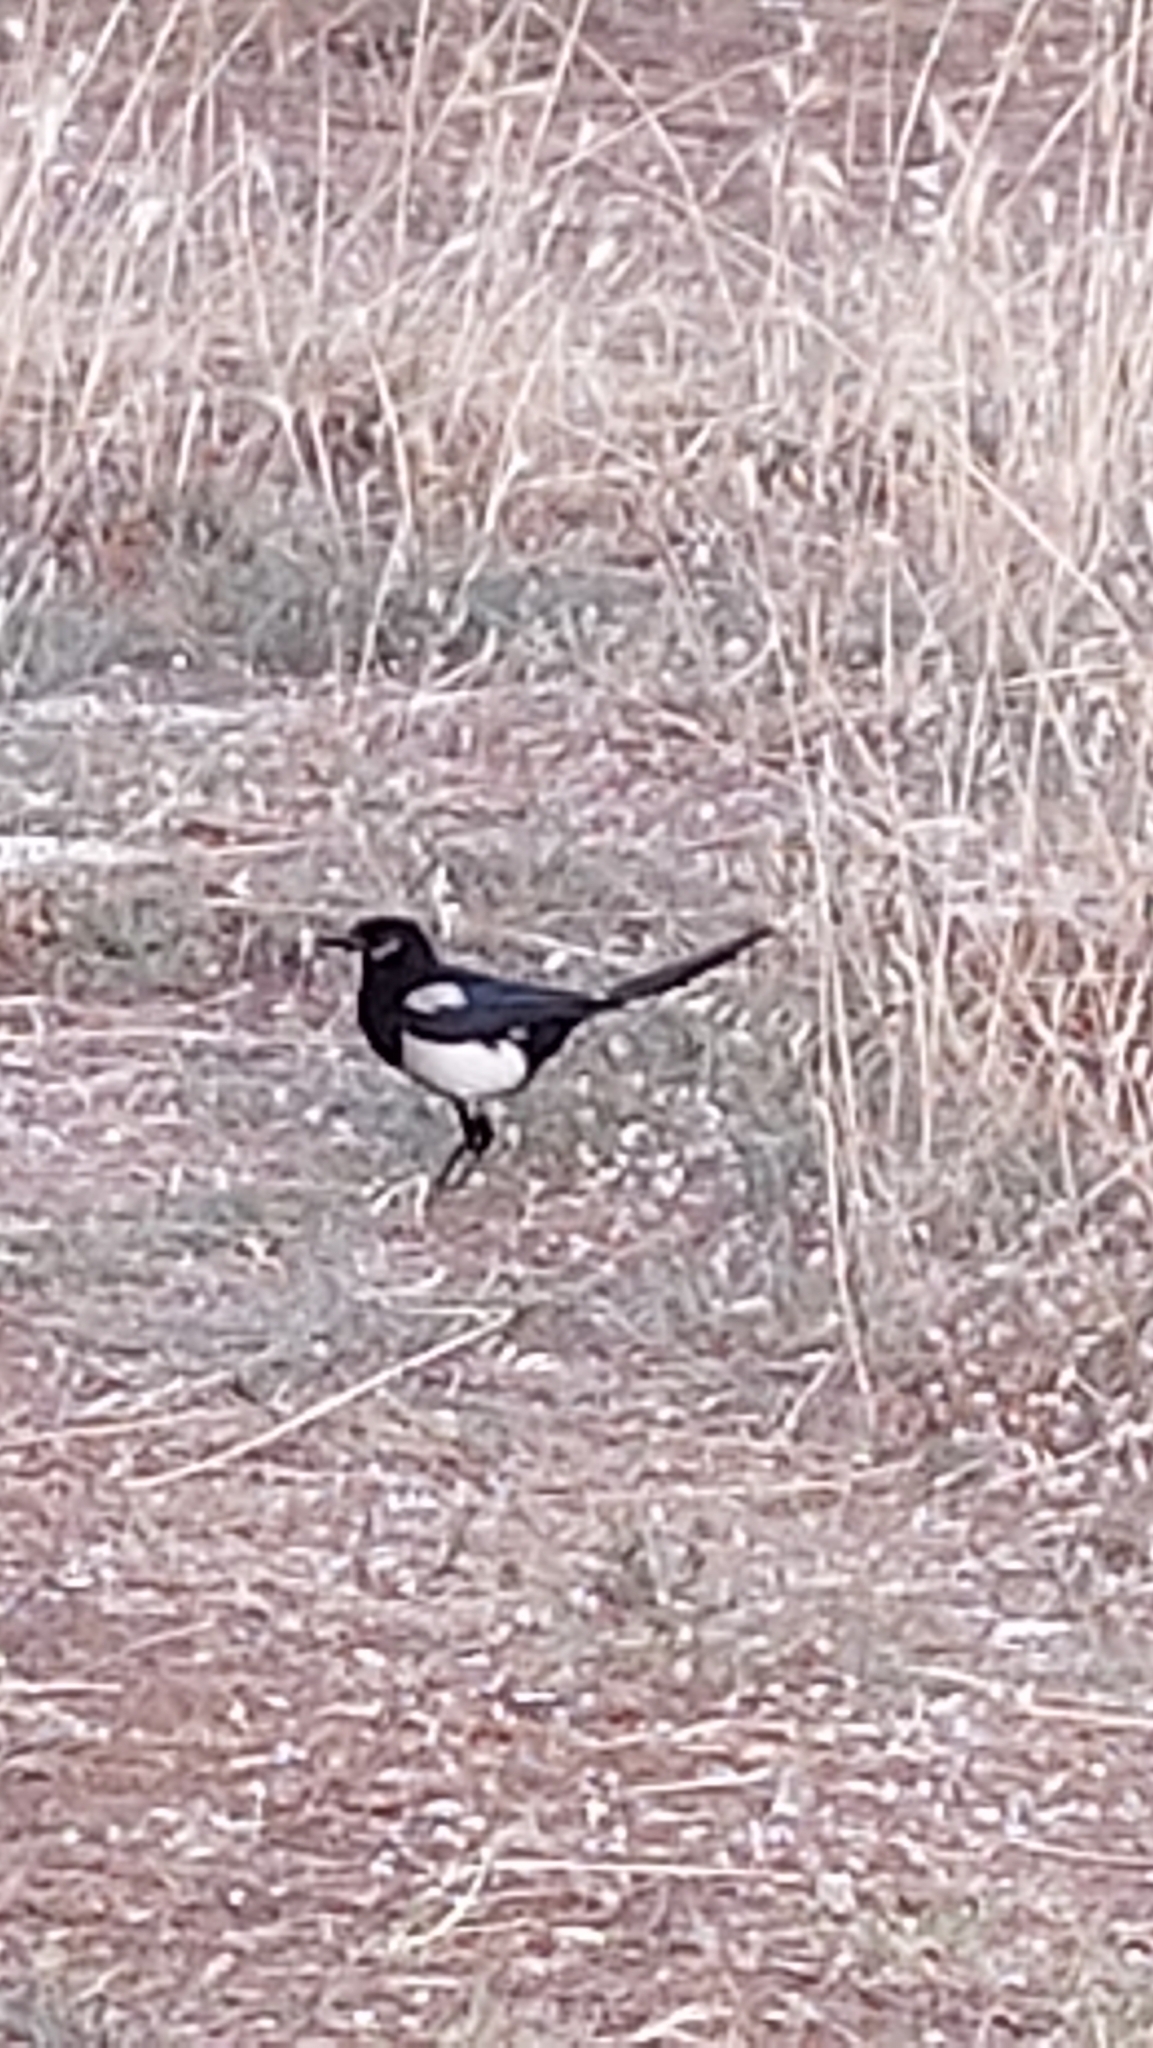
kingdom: Animalia
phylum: Chordata
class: Aves
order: Passeriformes
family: Corvidae
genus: Pica
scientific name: Pica pica
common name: Eurasian magpie
